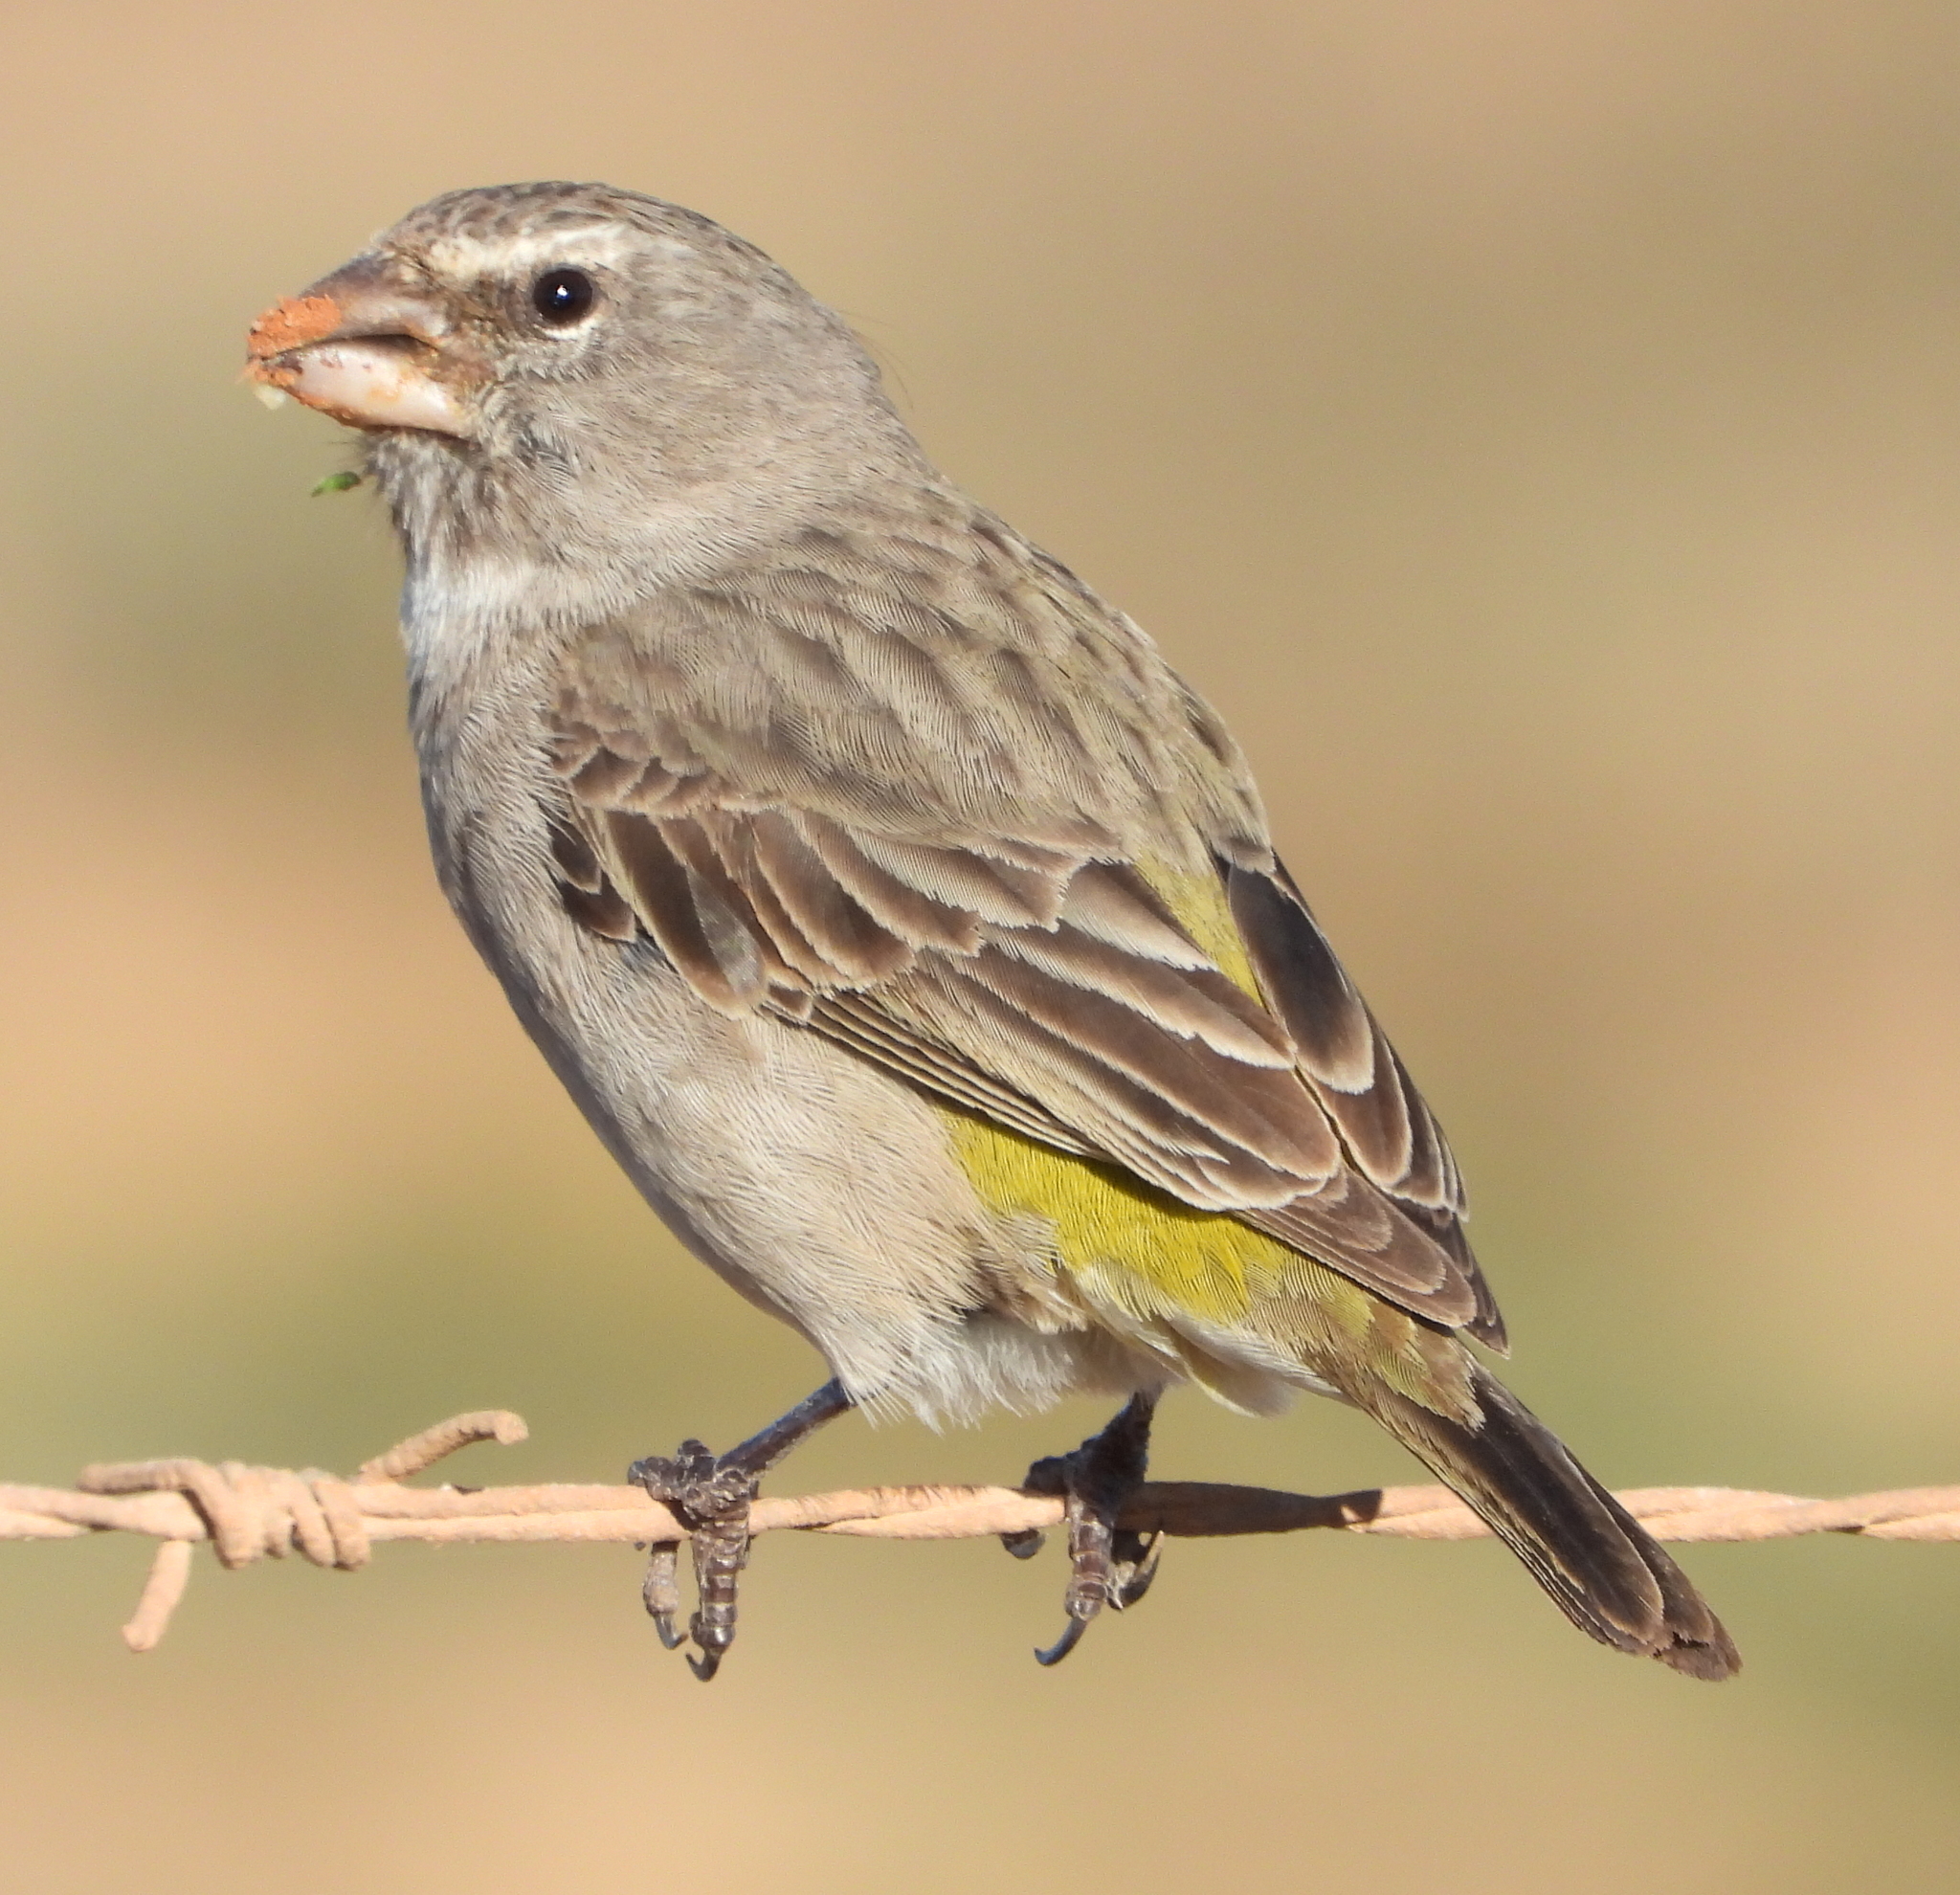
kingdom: Animalia
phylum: Chordata
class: Aves
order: Passeriformes
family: Fringillidae
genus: Crithagra
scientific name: Crithagra albogularis
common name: White-throated canary
